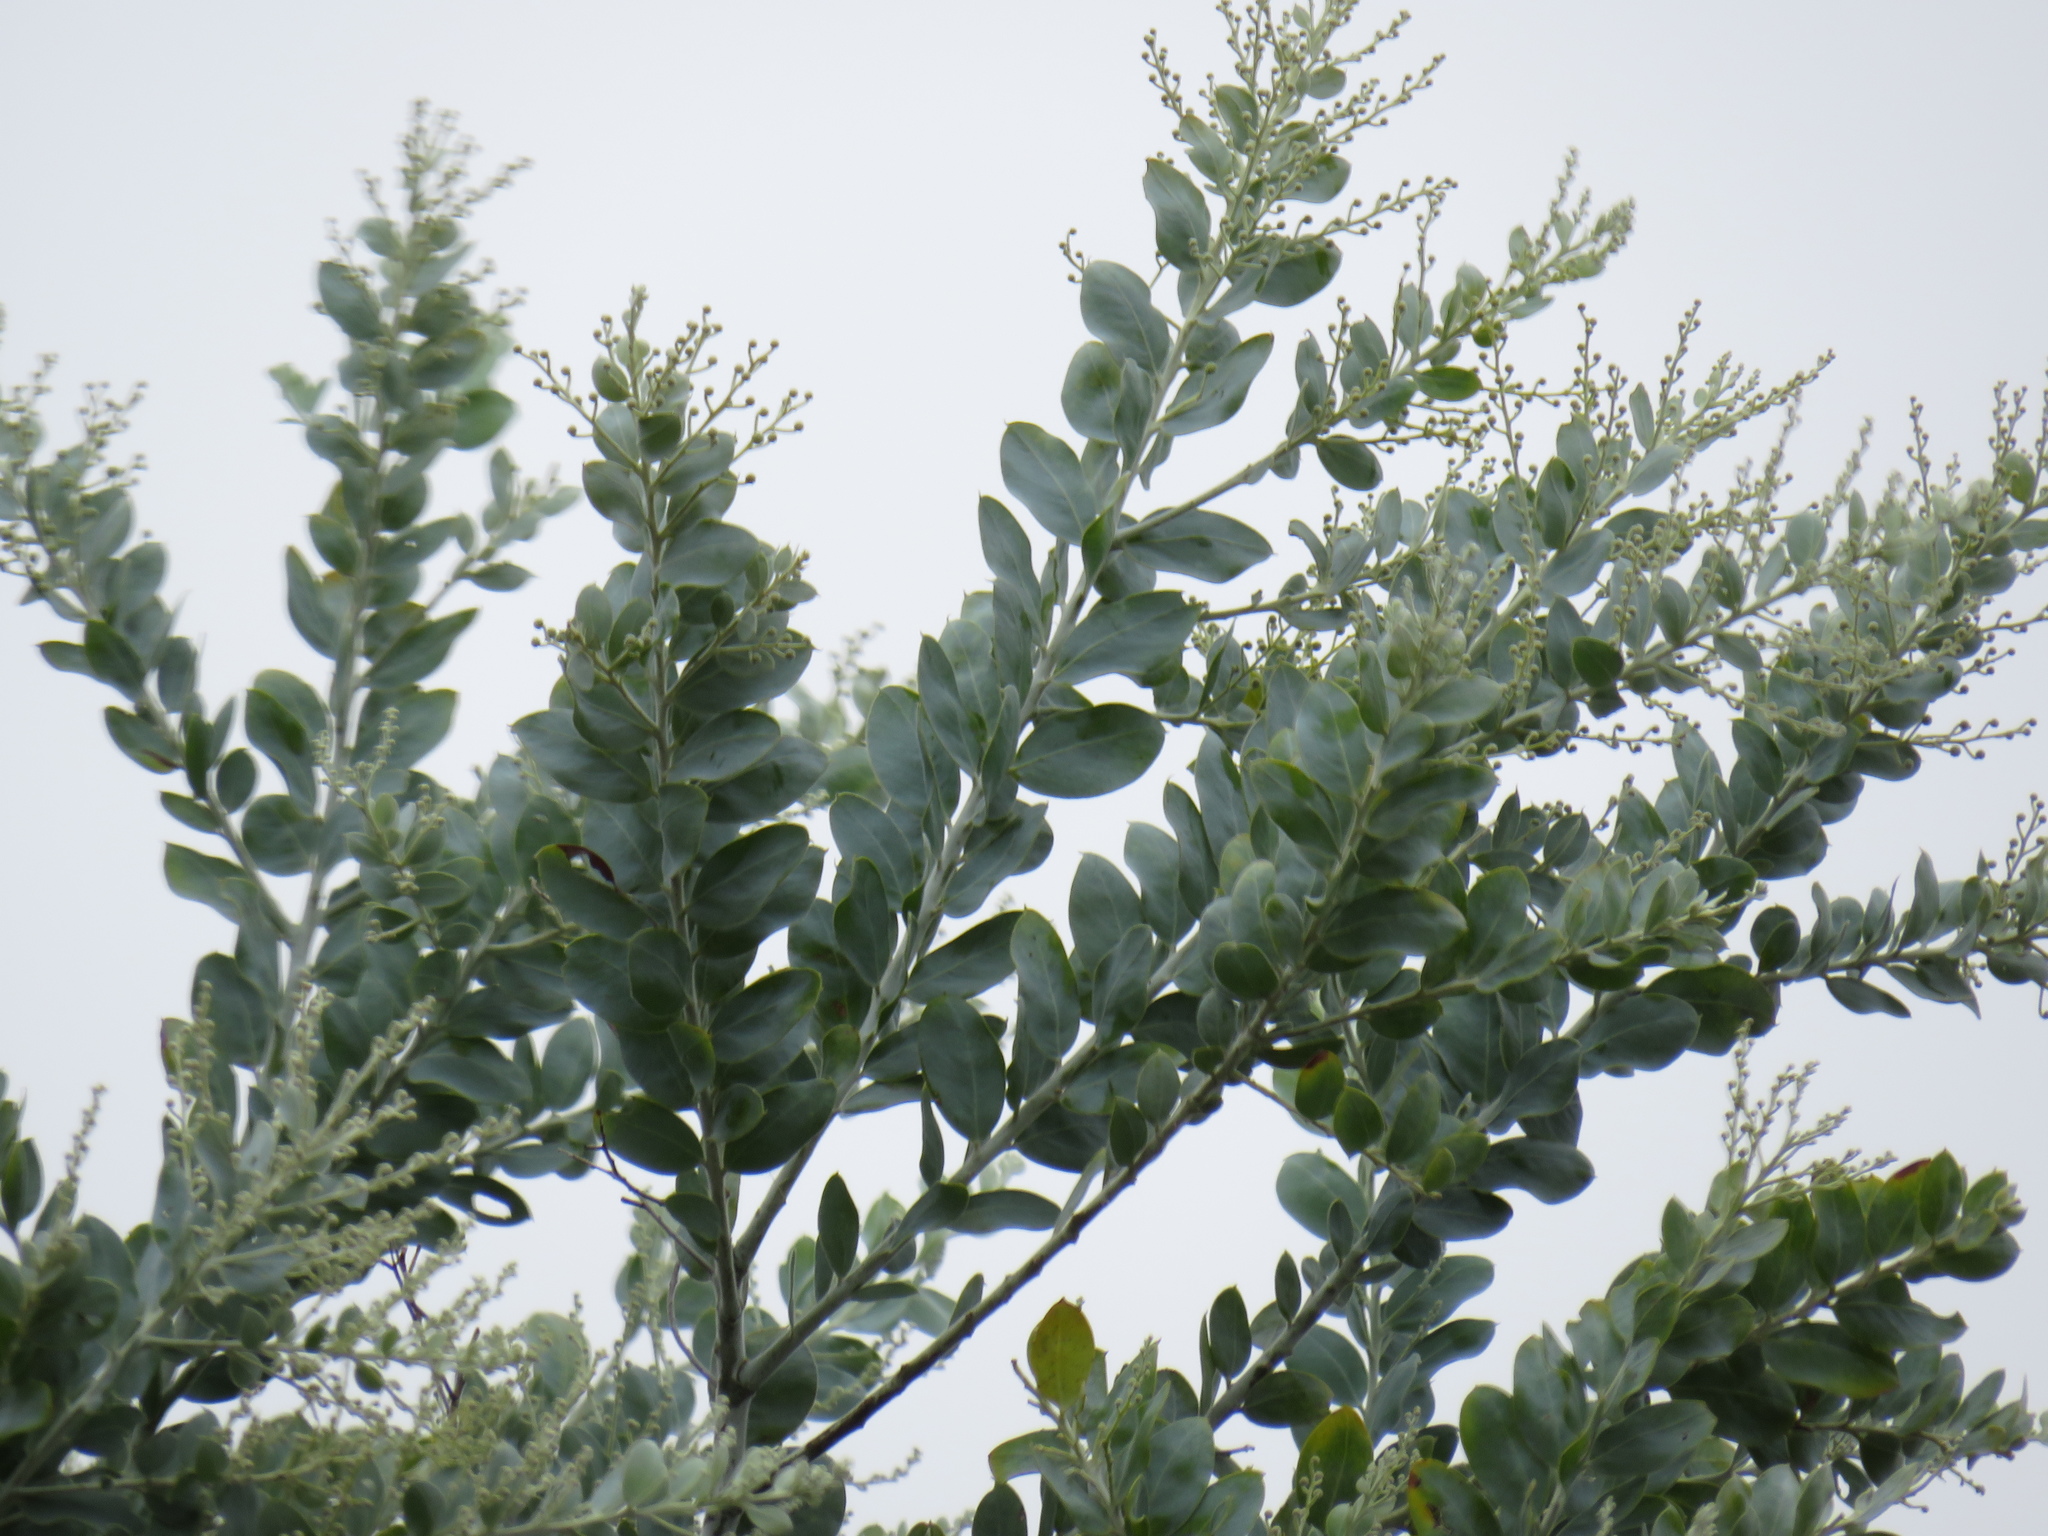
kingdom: Plantae
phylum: Tracheophyta
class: Magnoliopsida
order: Fabales
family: Fabaceae
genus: Acacia
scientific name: Acacia podalyriifolia
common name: Pearl wattle
